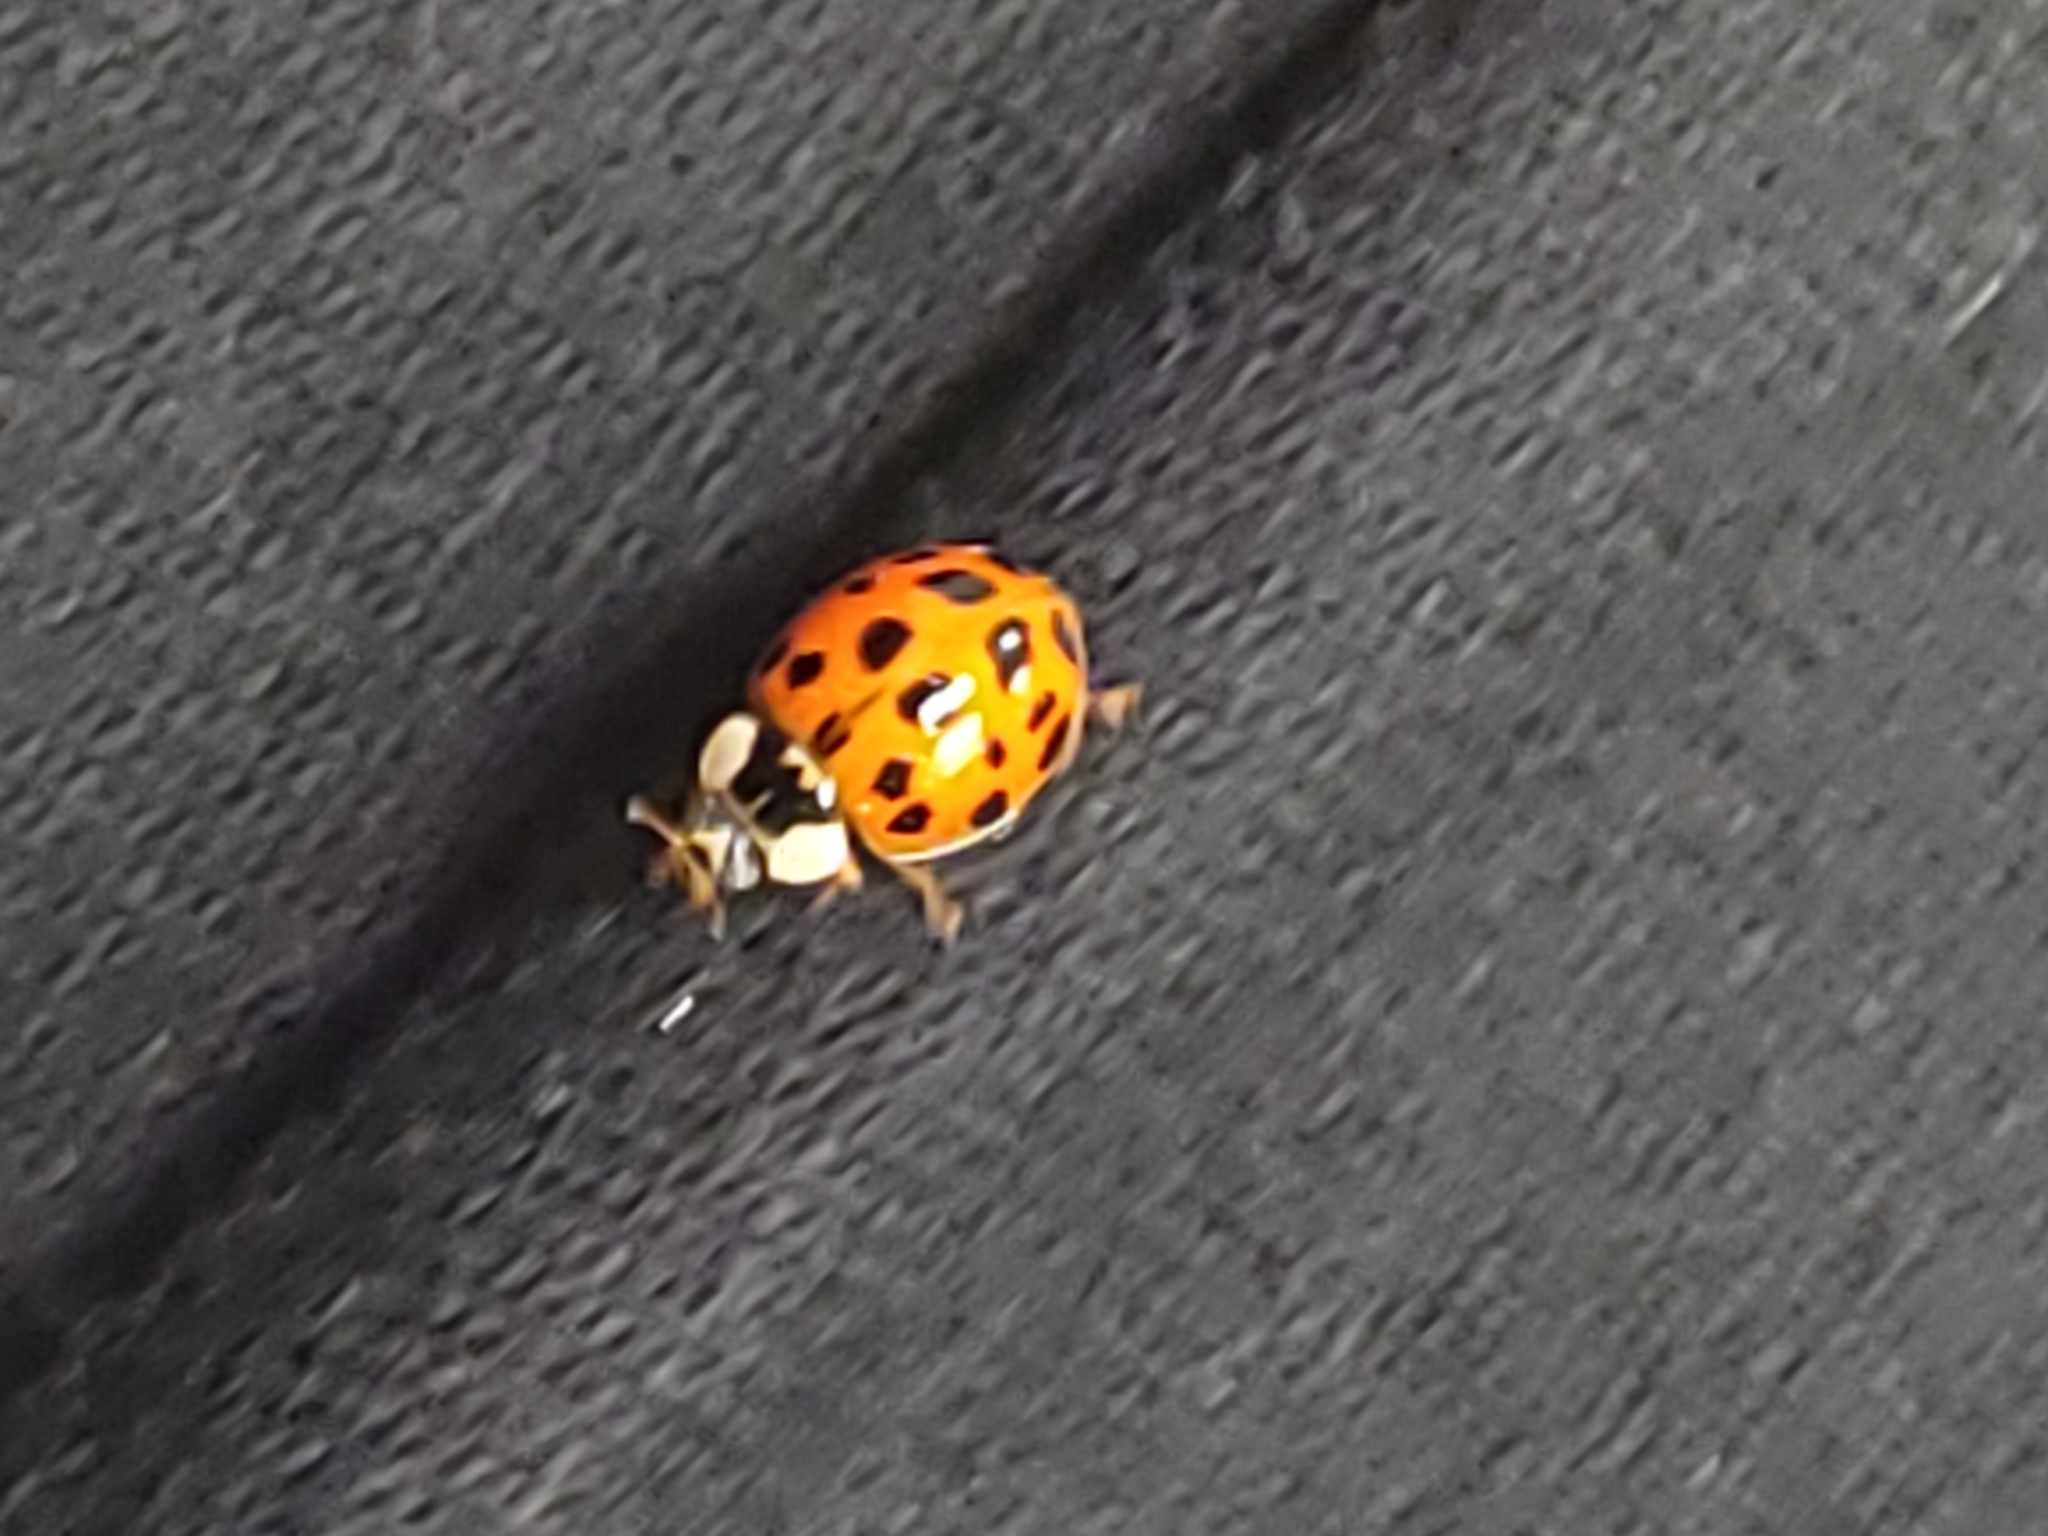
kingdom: Animalia
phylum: Arthropoda
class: Insecta
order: Coleoptera
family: Coccinellidae
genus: Harmonia
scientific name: Harmonia axyridis
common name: Harlequin ladybird
